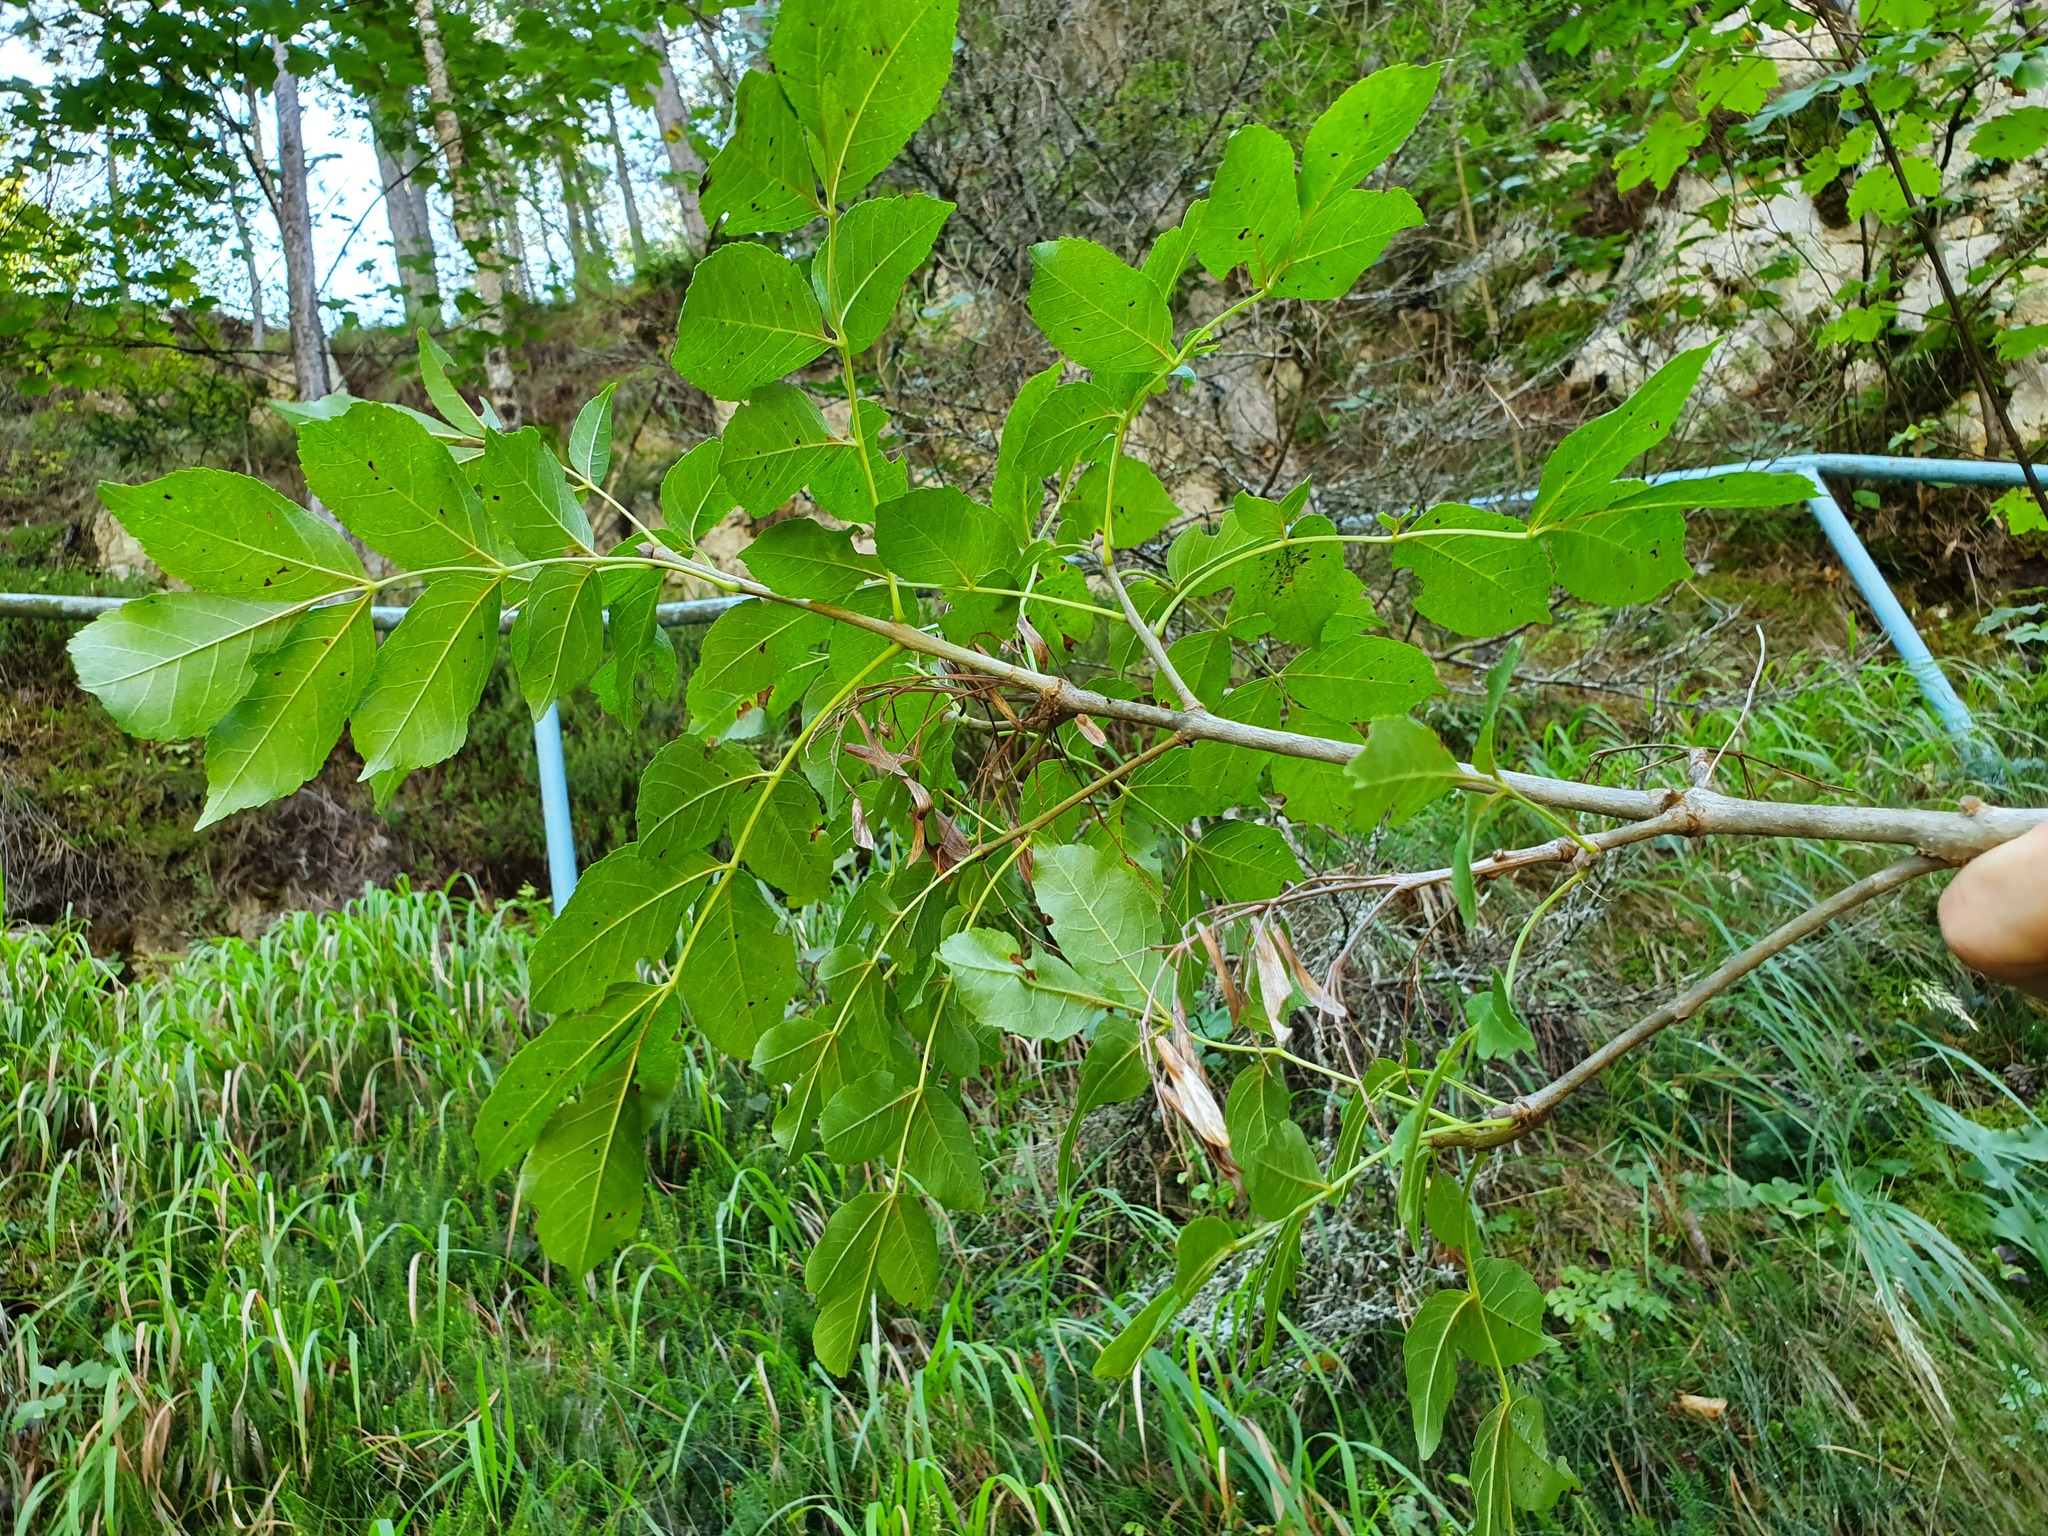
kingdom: Plantae
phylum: Tracheophyta
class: Magnoliopsida
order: Lamiales
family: Oleaceae
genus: Fraxinus
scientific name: Fraxinus ornus
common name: Manna ash
